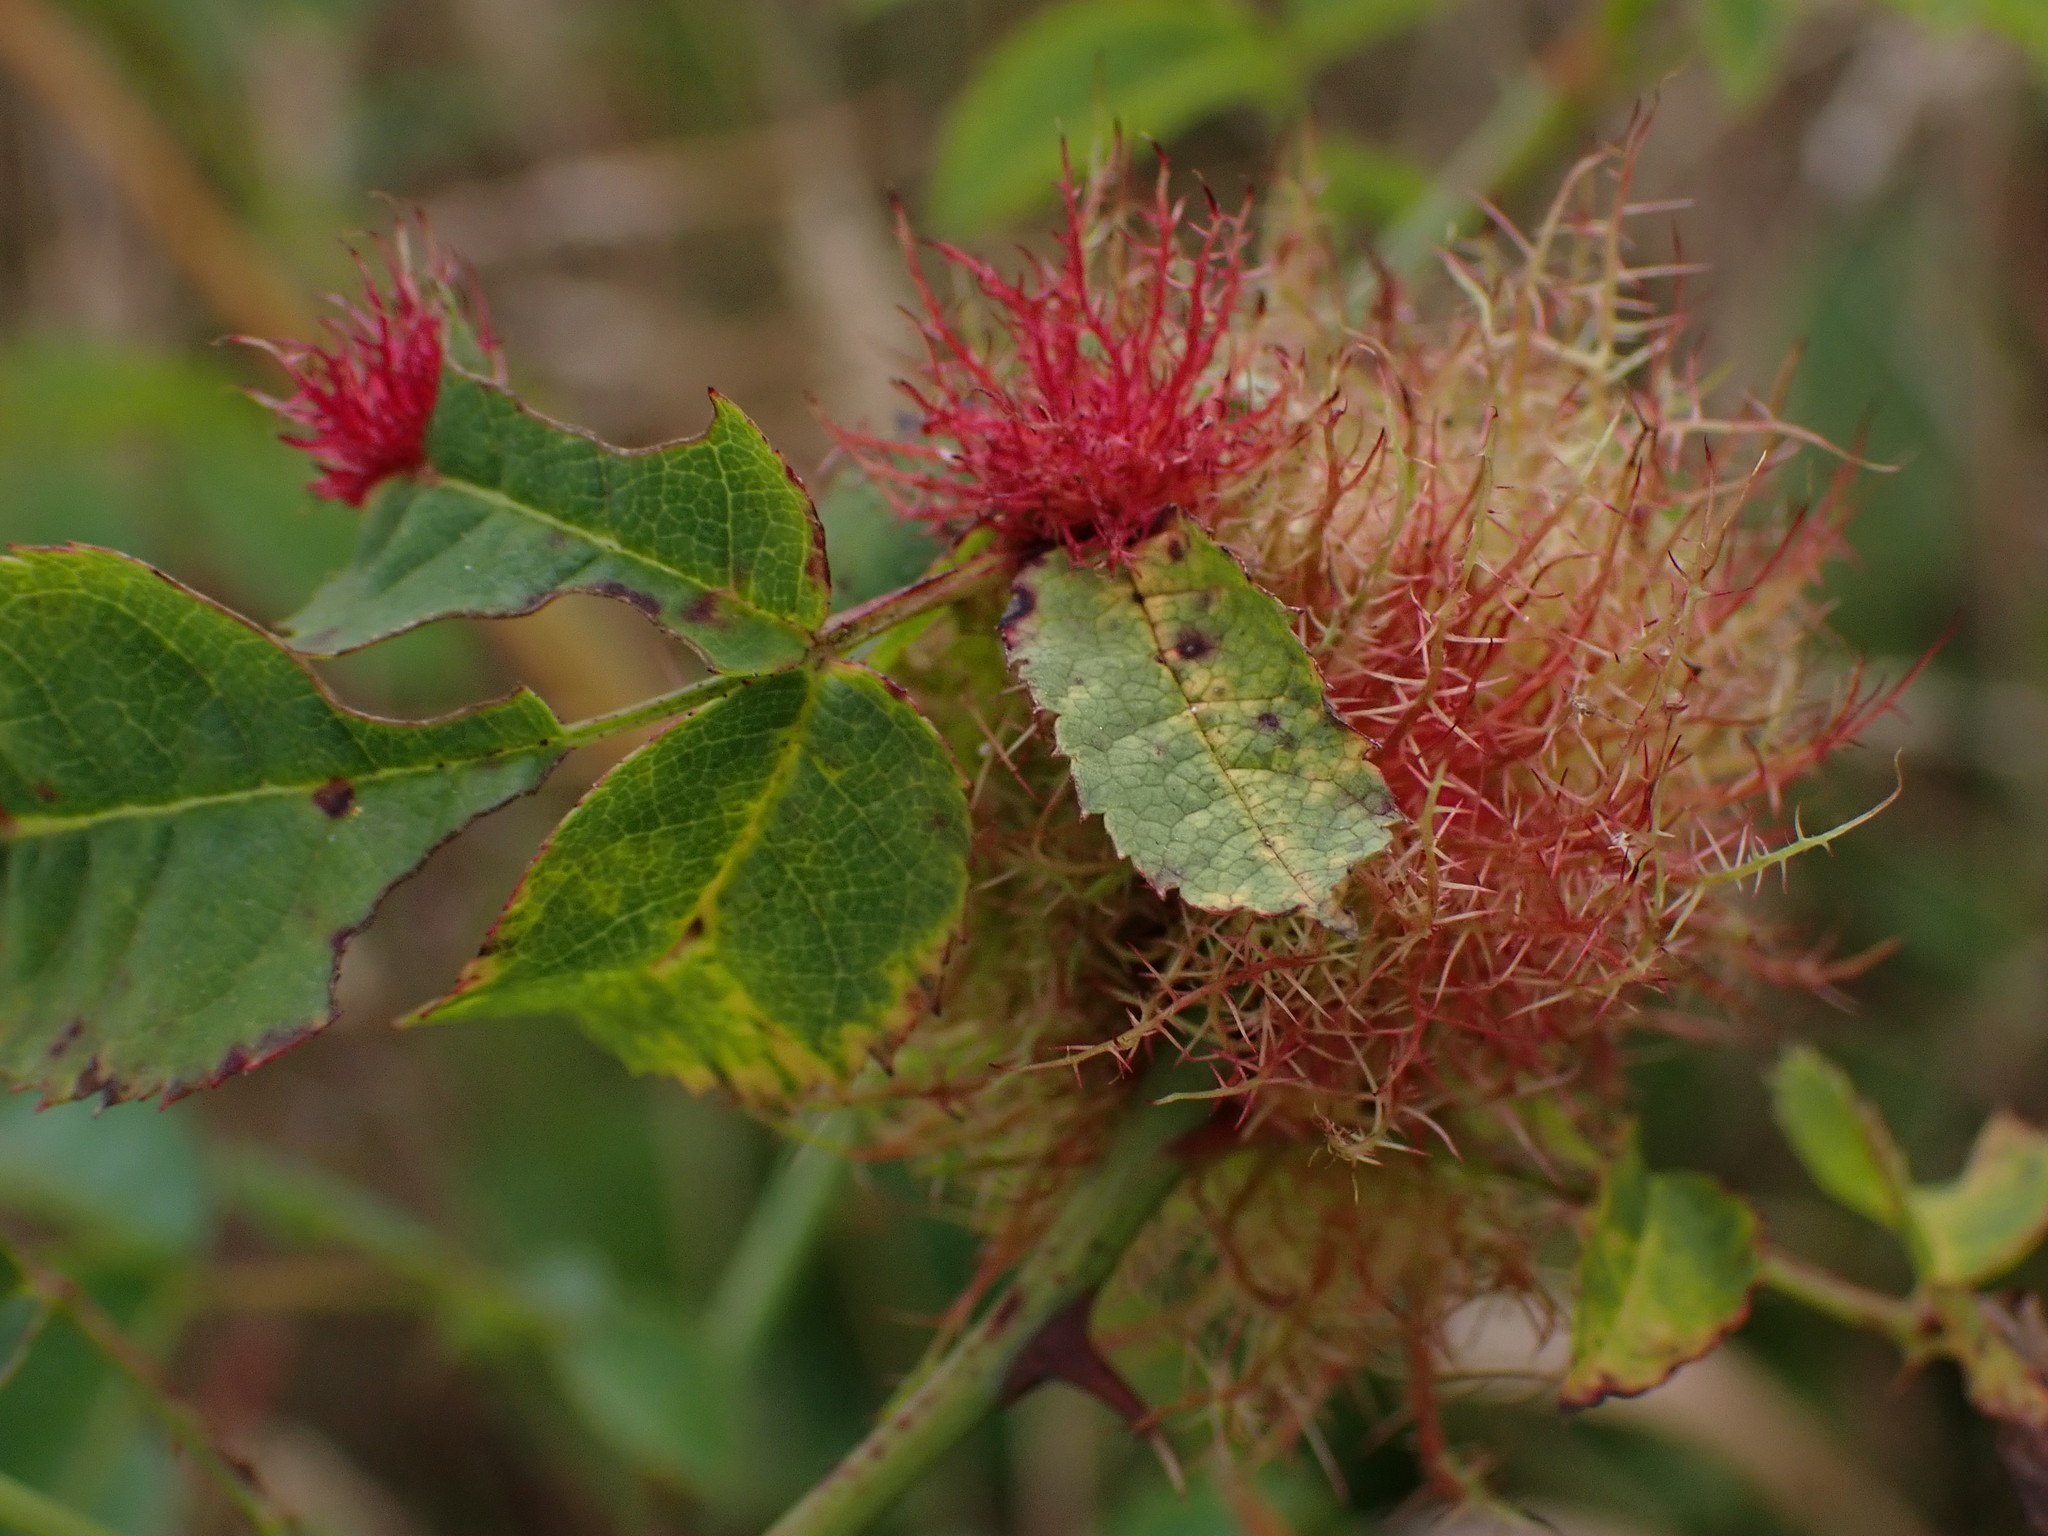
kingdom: Animalia
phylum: Arthropoda
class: Insecta
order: Hymenoptera
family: Cynipidae
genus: Diplolepis
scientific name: Diplolepis rosae
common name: Bedeguar gall
